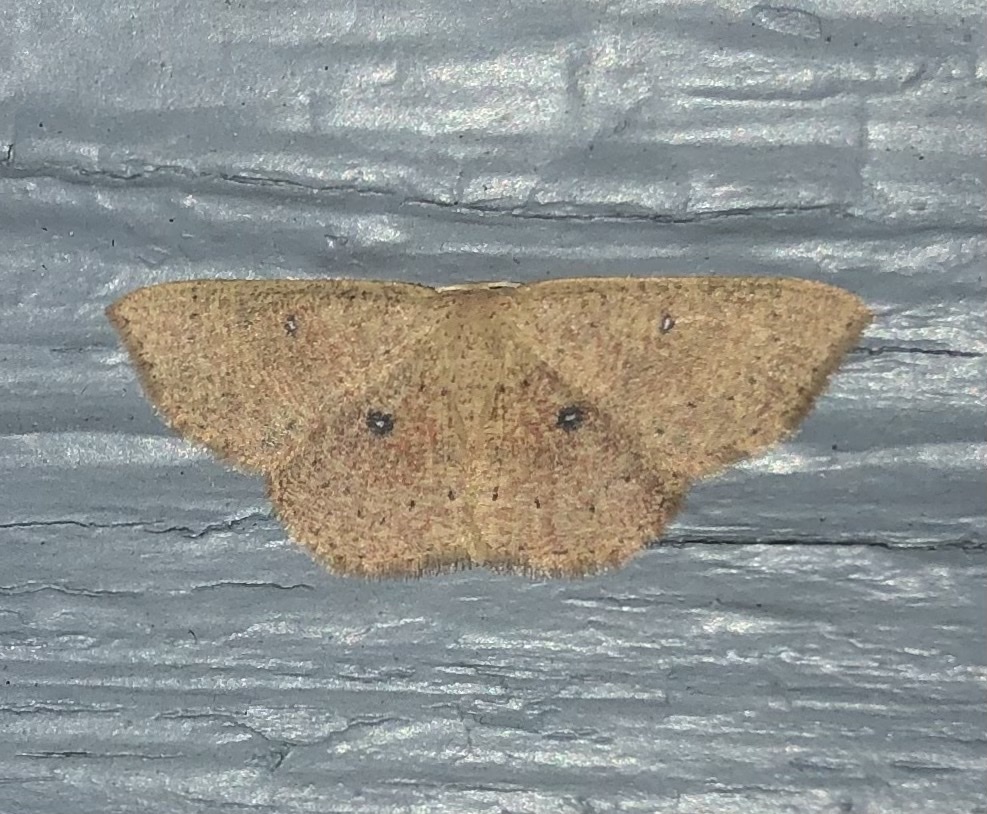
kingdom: Animalia
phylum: Arthropoda
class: Insecta
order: Lepidoptera
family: Geometridae
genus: Cyclophora
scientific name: Cyclophora packardi
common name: Packard's wave
